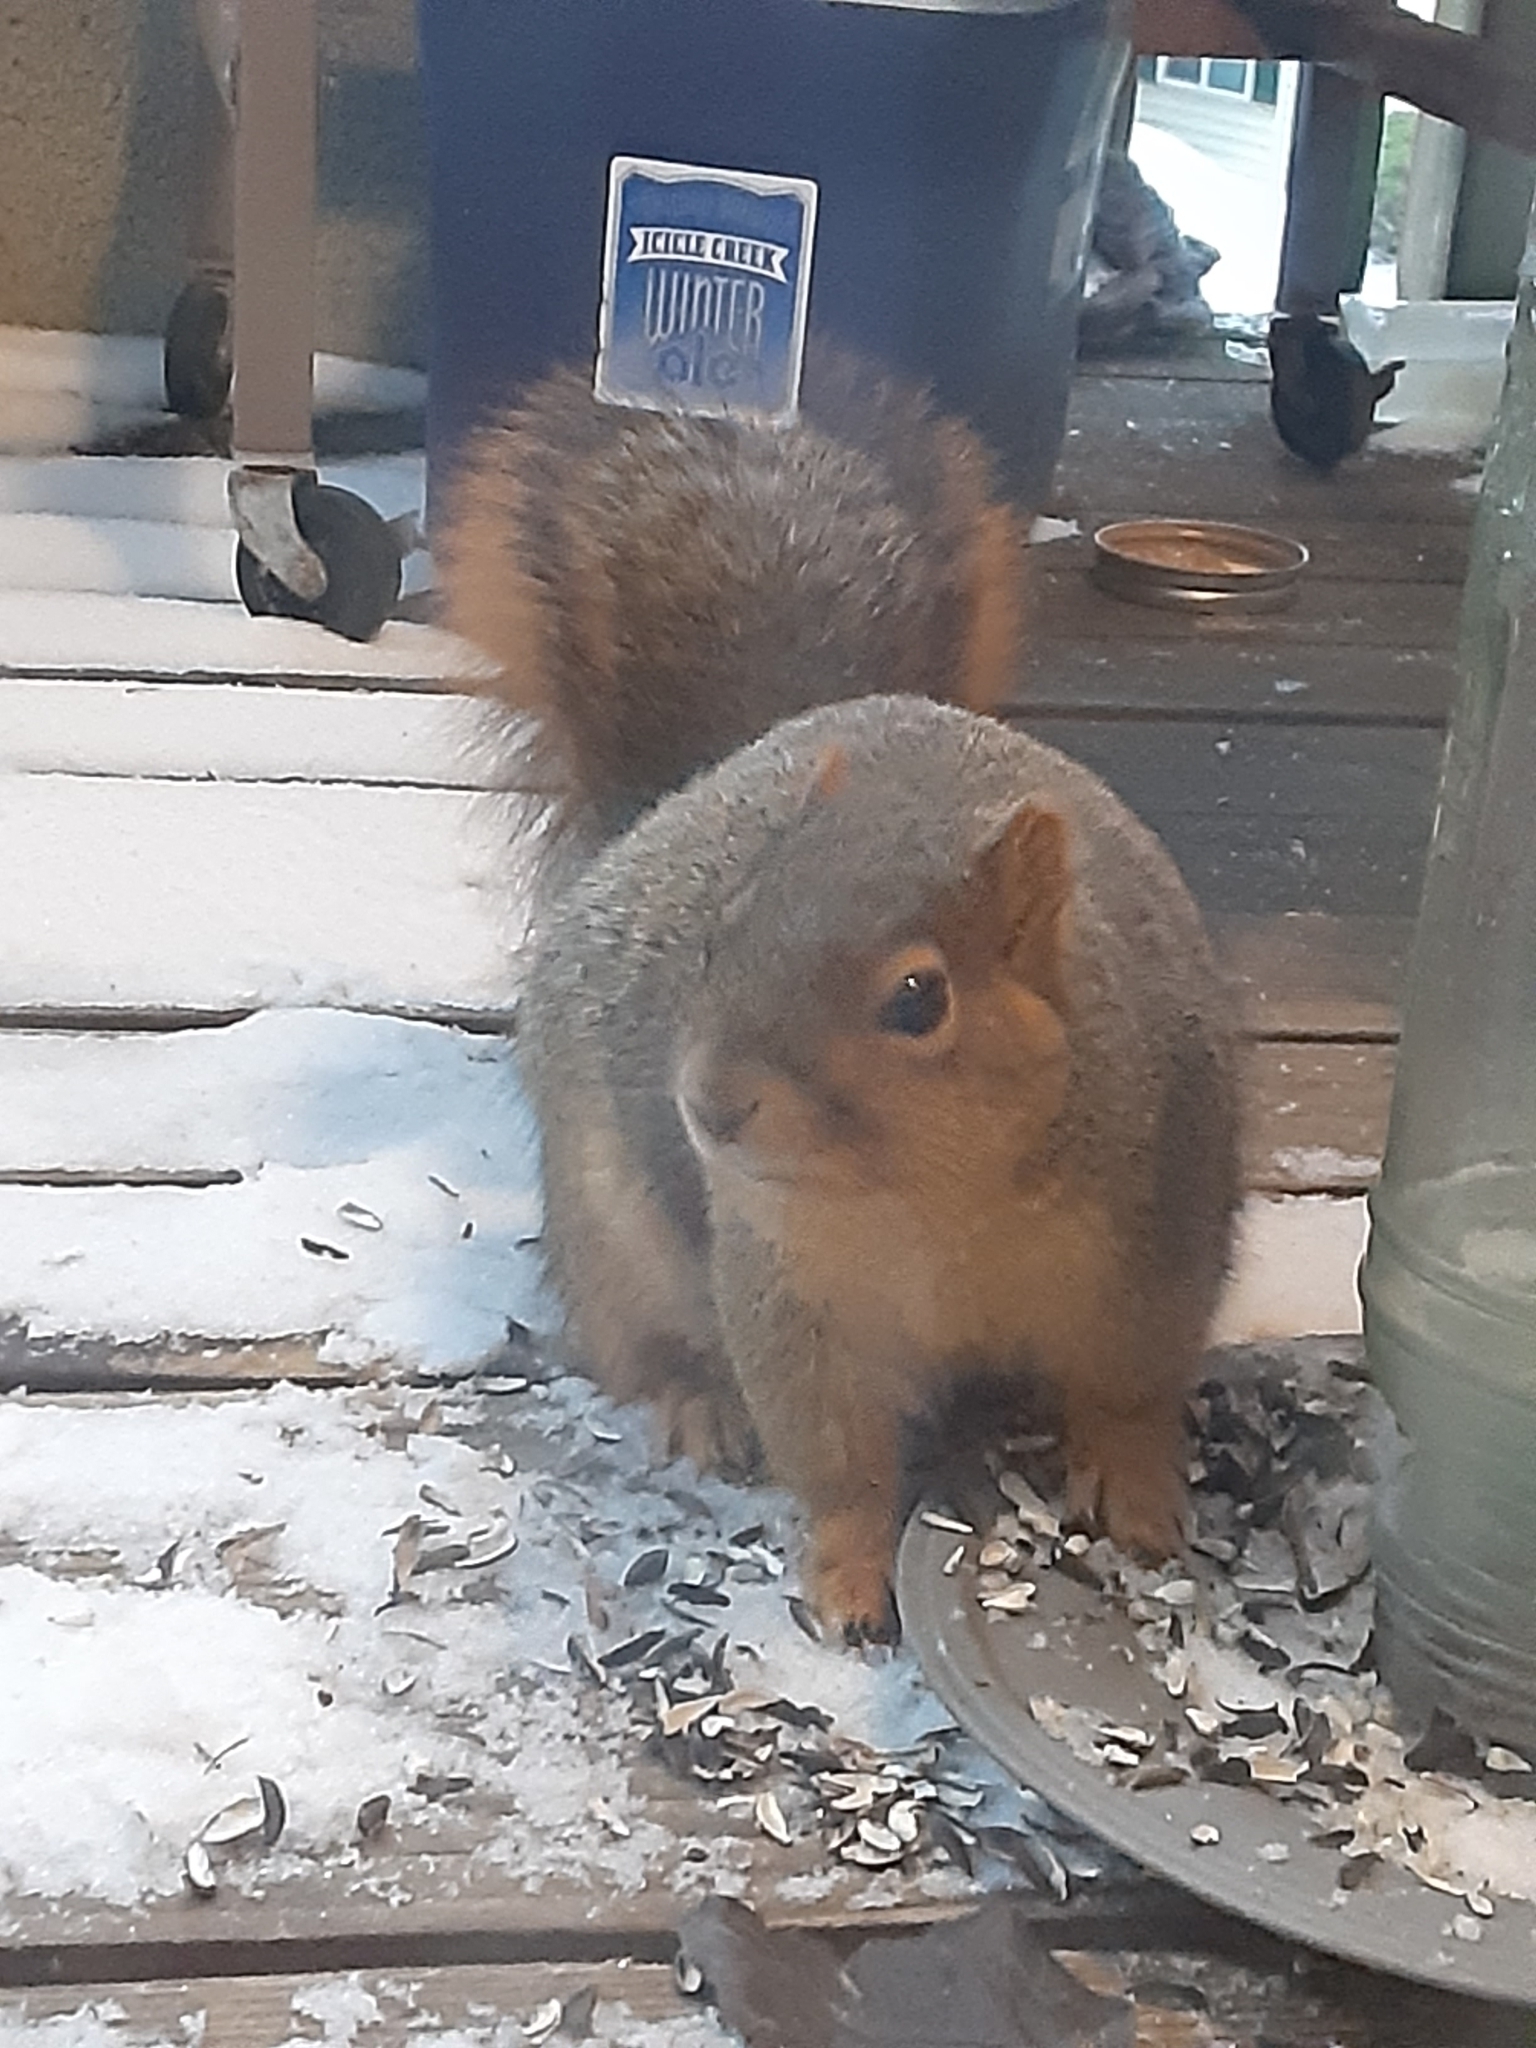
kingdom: Animalia
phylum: Chordata
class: Mammalia
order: Rodentia
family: Sciuridae
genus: Sciurus
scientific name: Sciurus niger
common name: Fox squirrel
